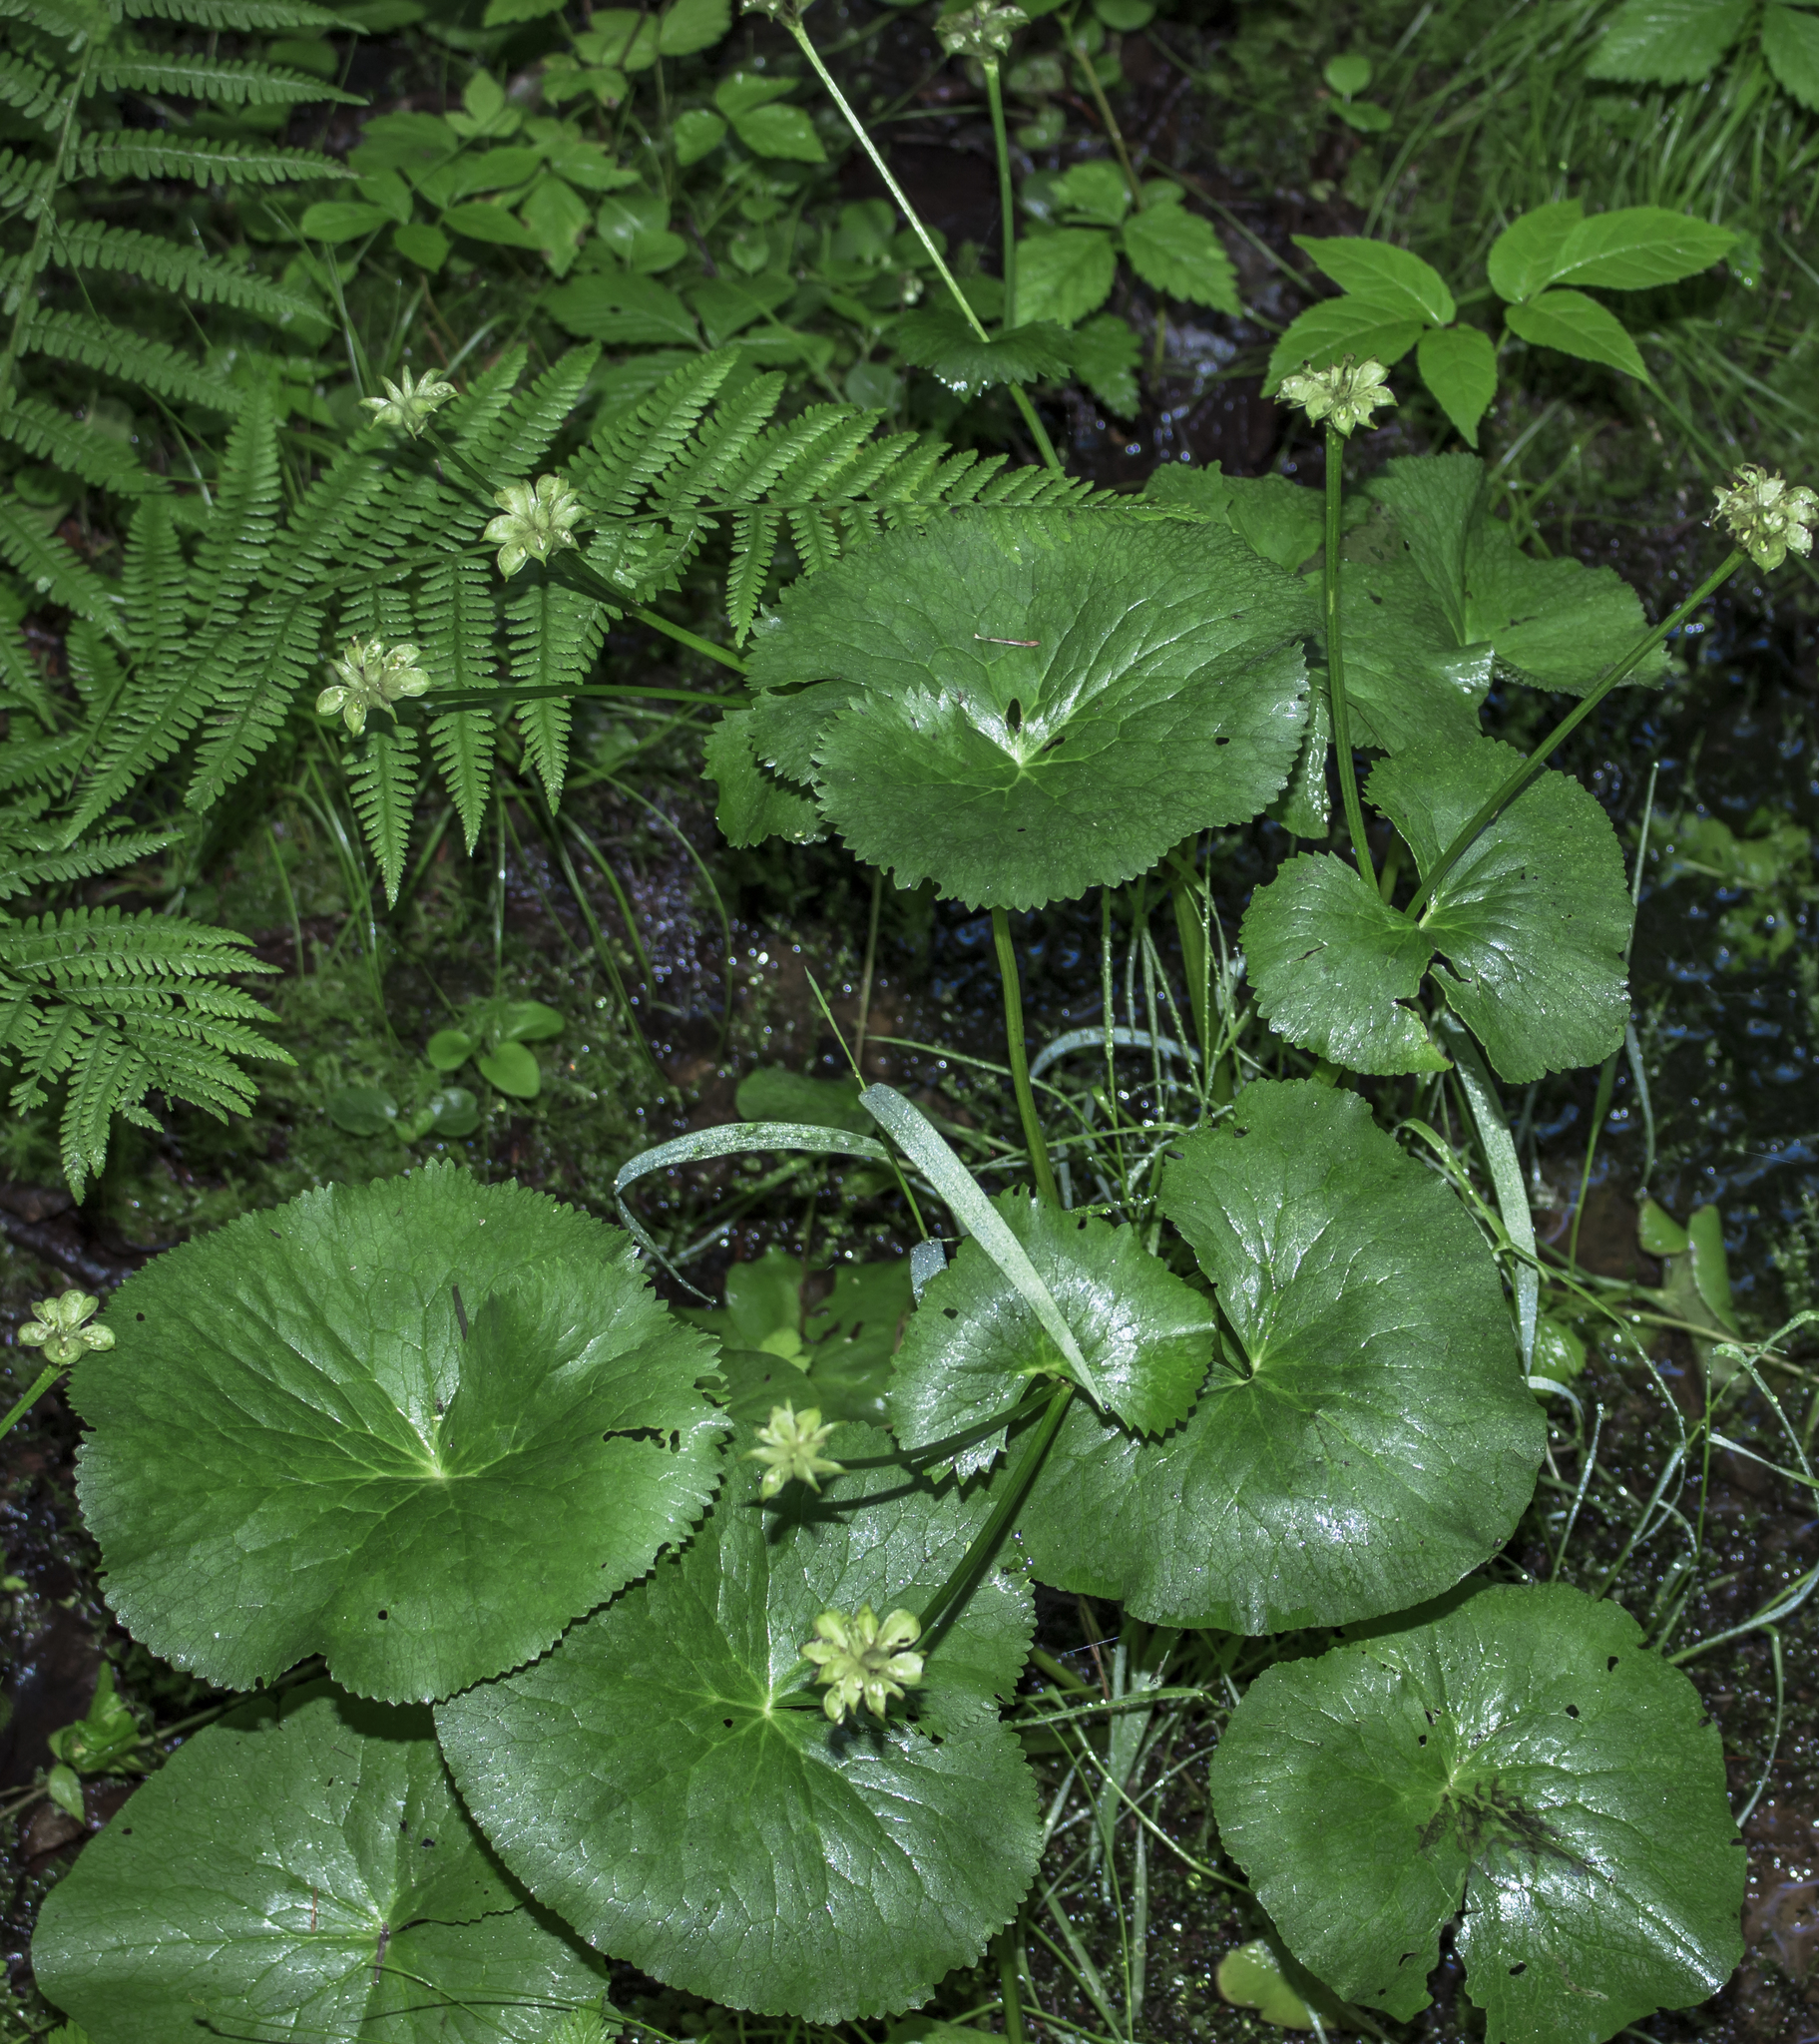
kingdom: Plantae
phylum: Tracheophyta
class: Magnoliopsida
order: Ranunculales
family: Ranunculaceae
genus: Caltha
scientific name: Caltha palustris
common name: Marsh marigold
